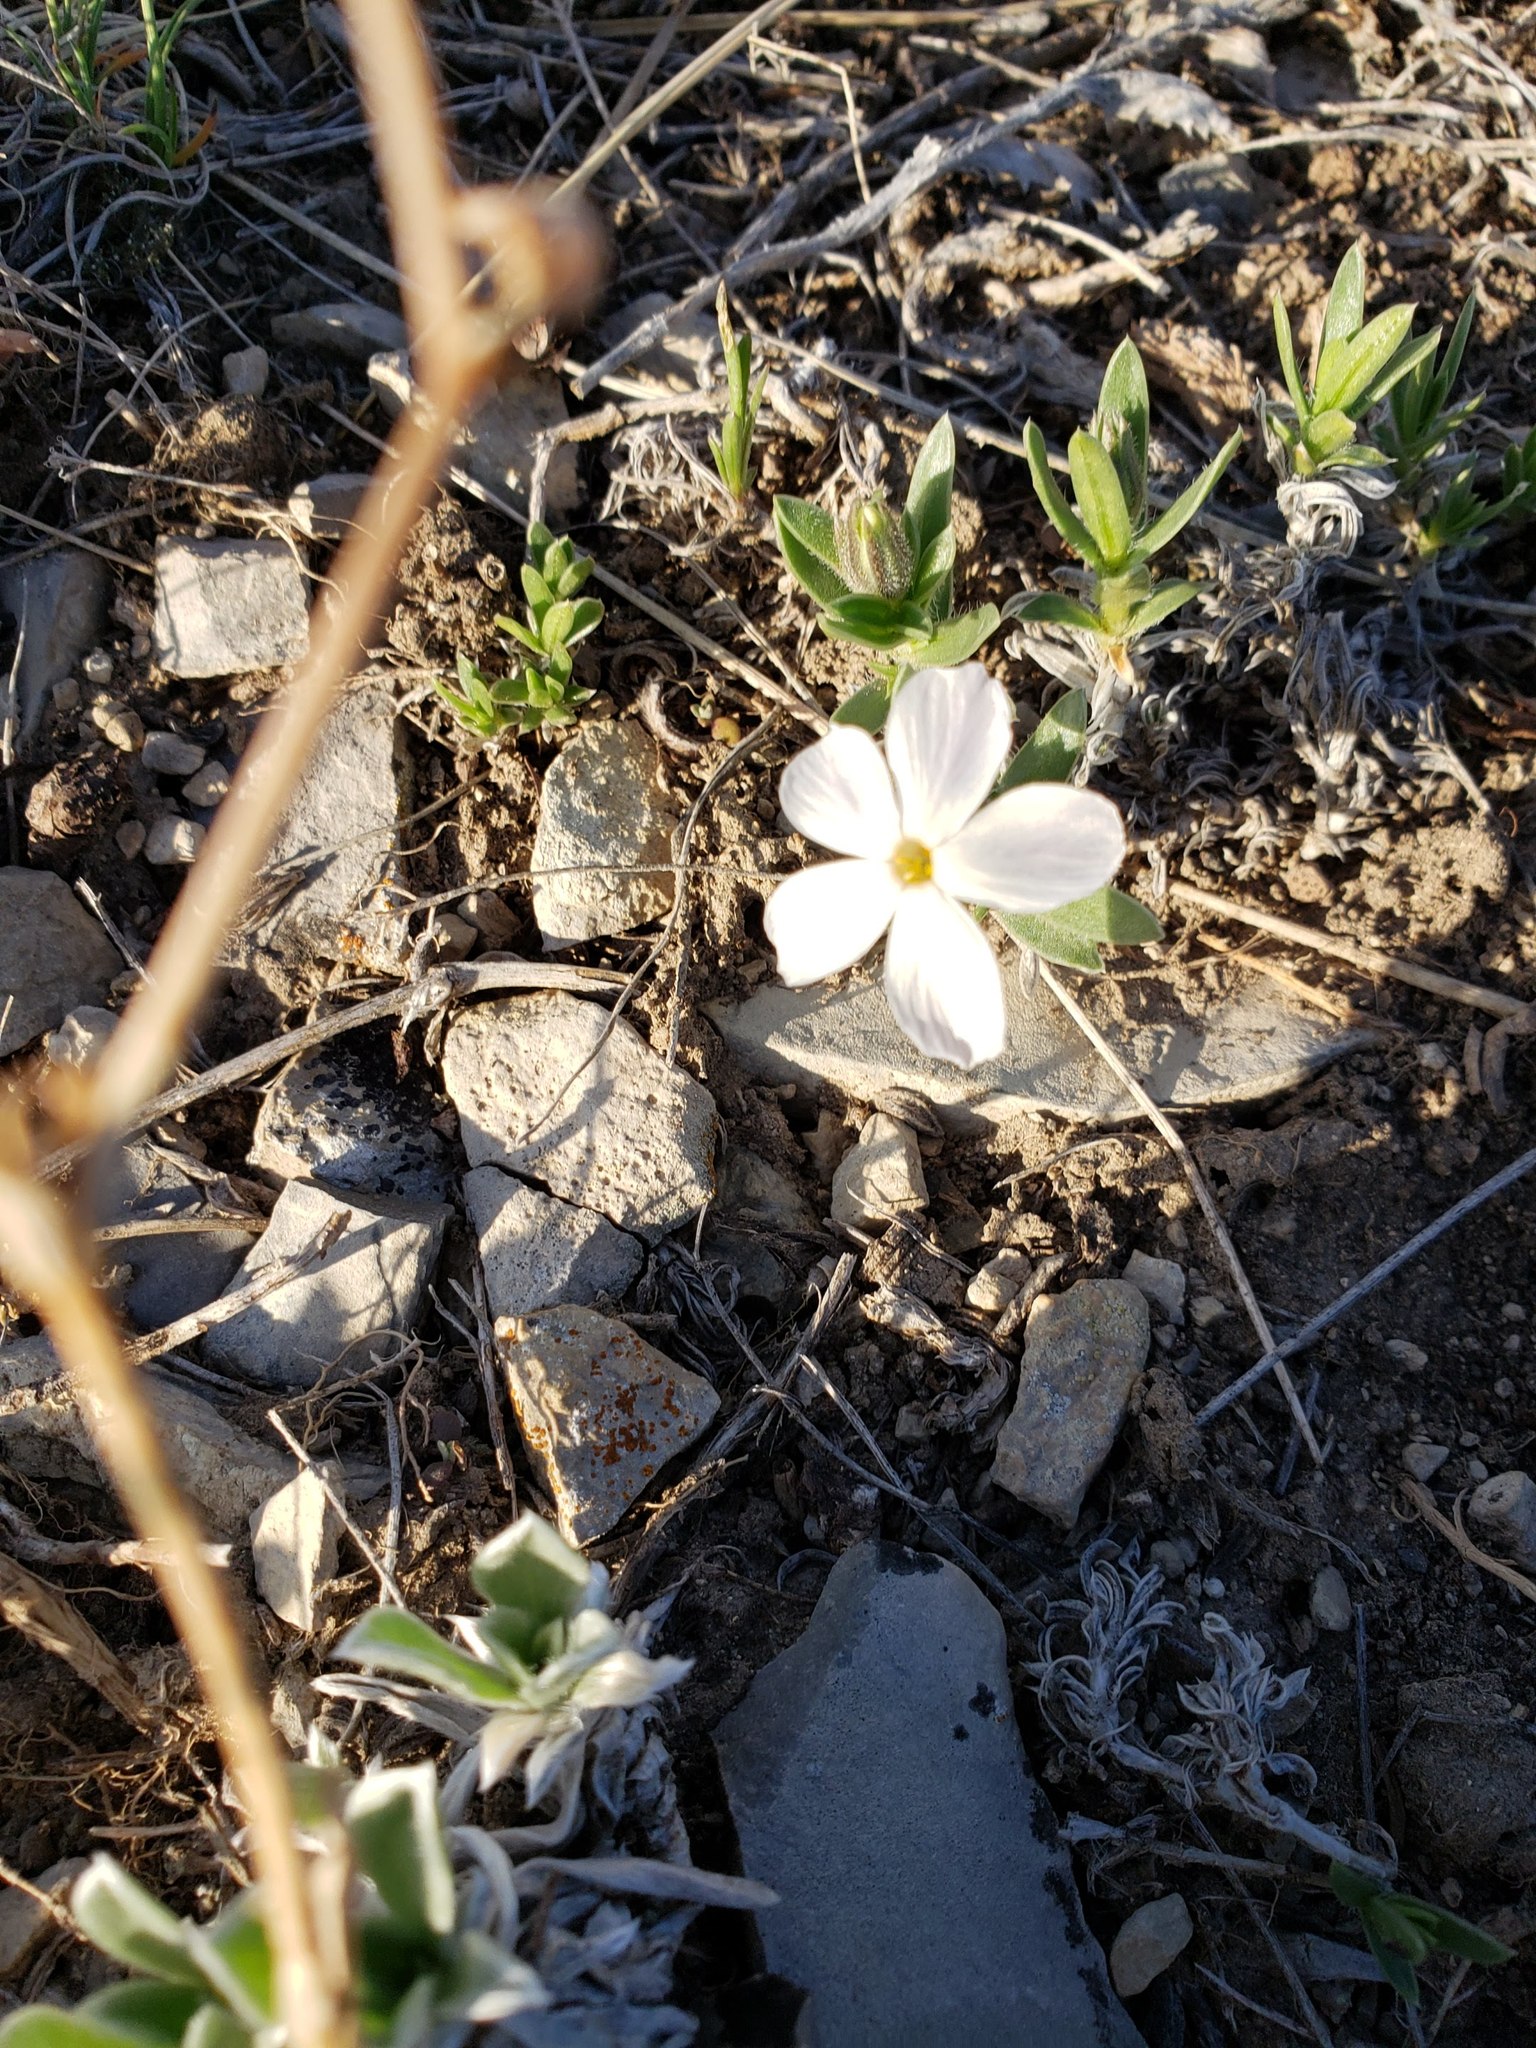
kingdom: Plantae
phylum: Tracheophyta
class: Magnoliopsida
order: Ericales
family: Polemoniaceae
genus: Phlox
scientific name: Phlox alyssifolia
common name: Blue phlox
